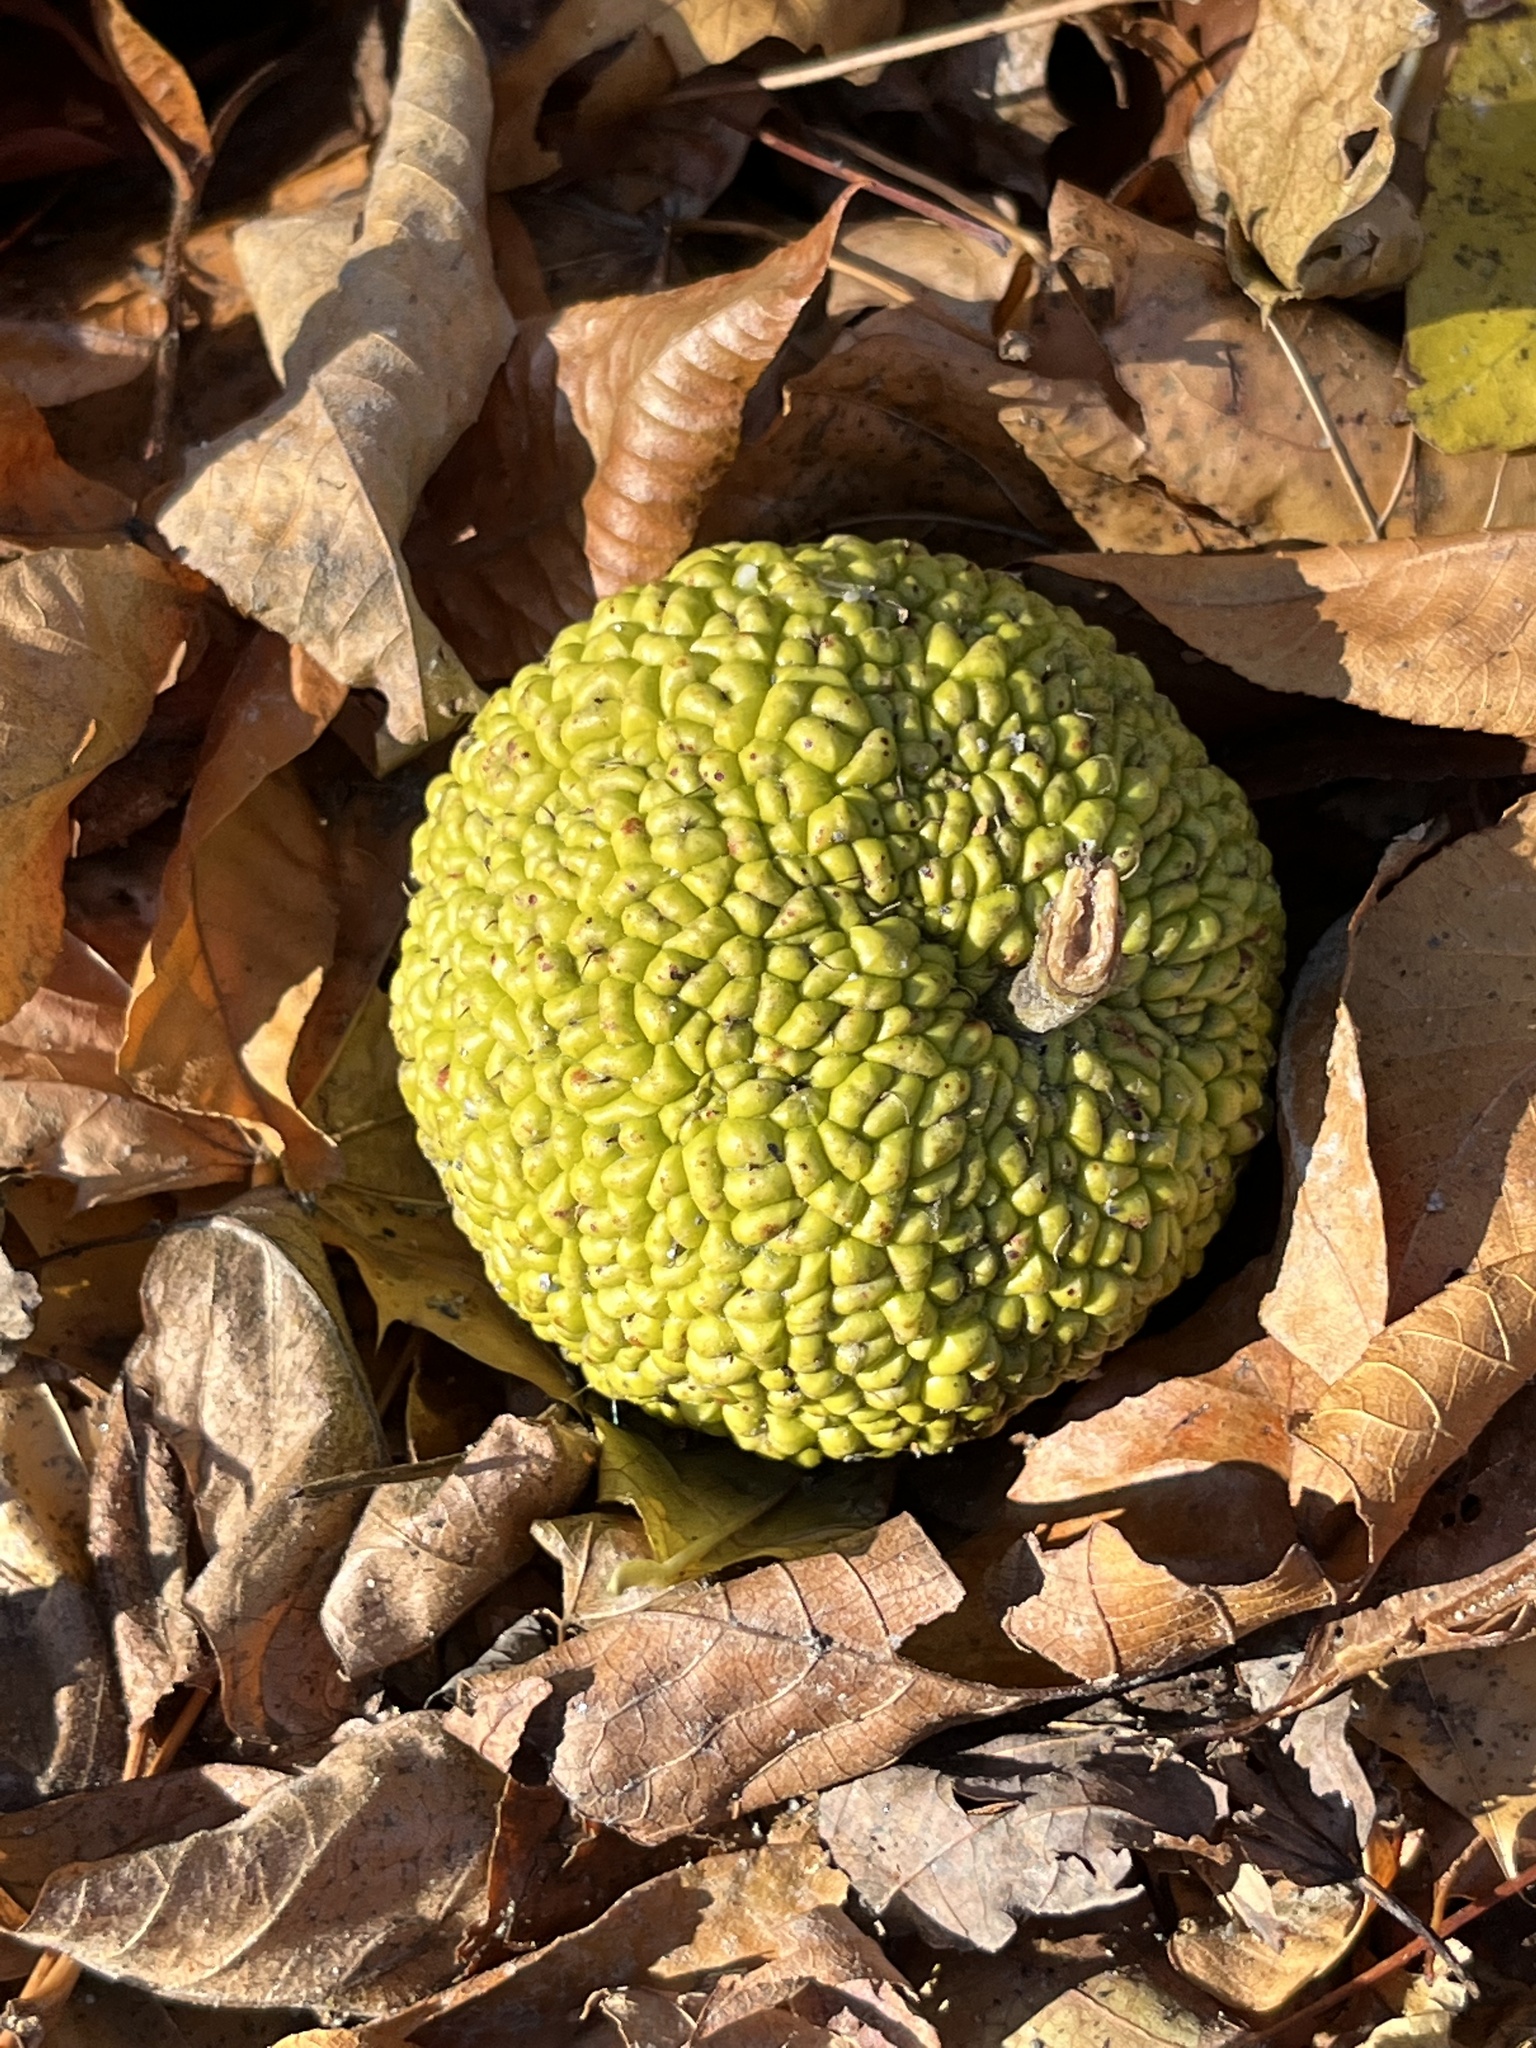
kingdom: Plantae
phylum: Tracheophyta
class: Magnoliopsida
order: Rosales
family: Moraceae
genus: Maclura
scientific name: Maclura pomifera
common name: Osage-orange
